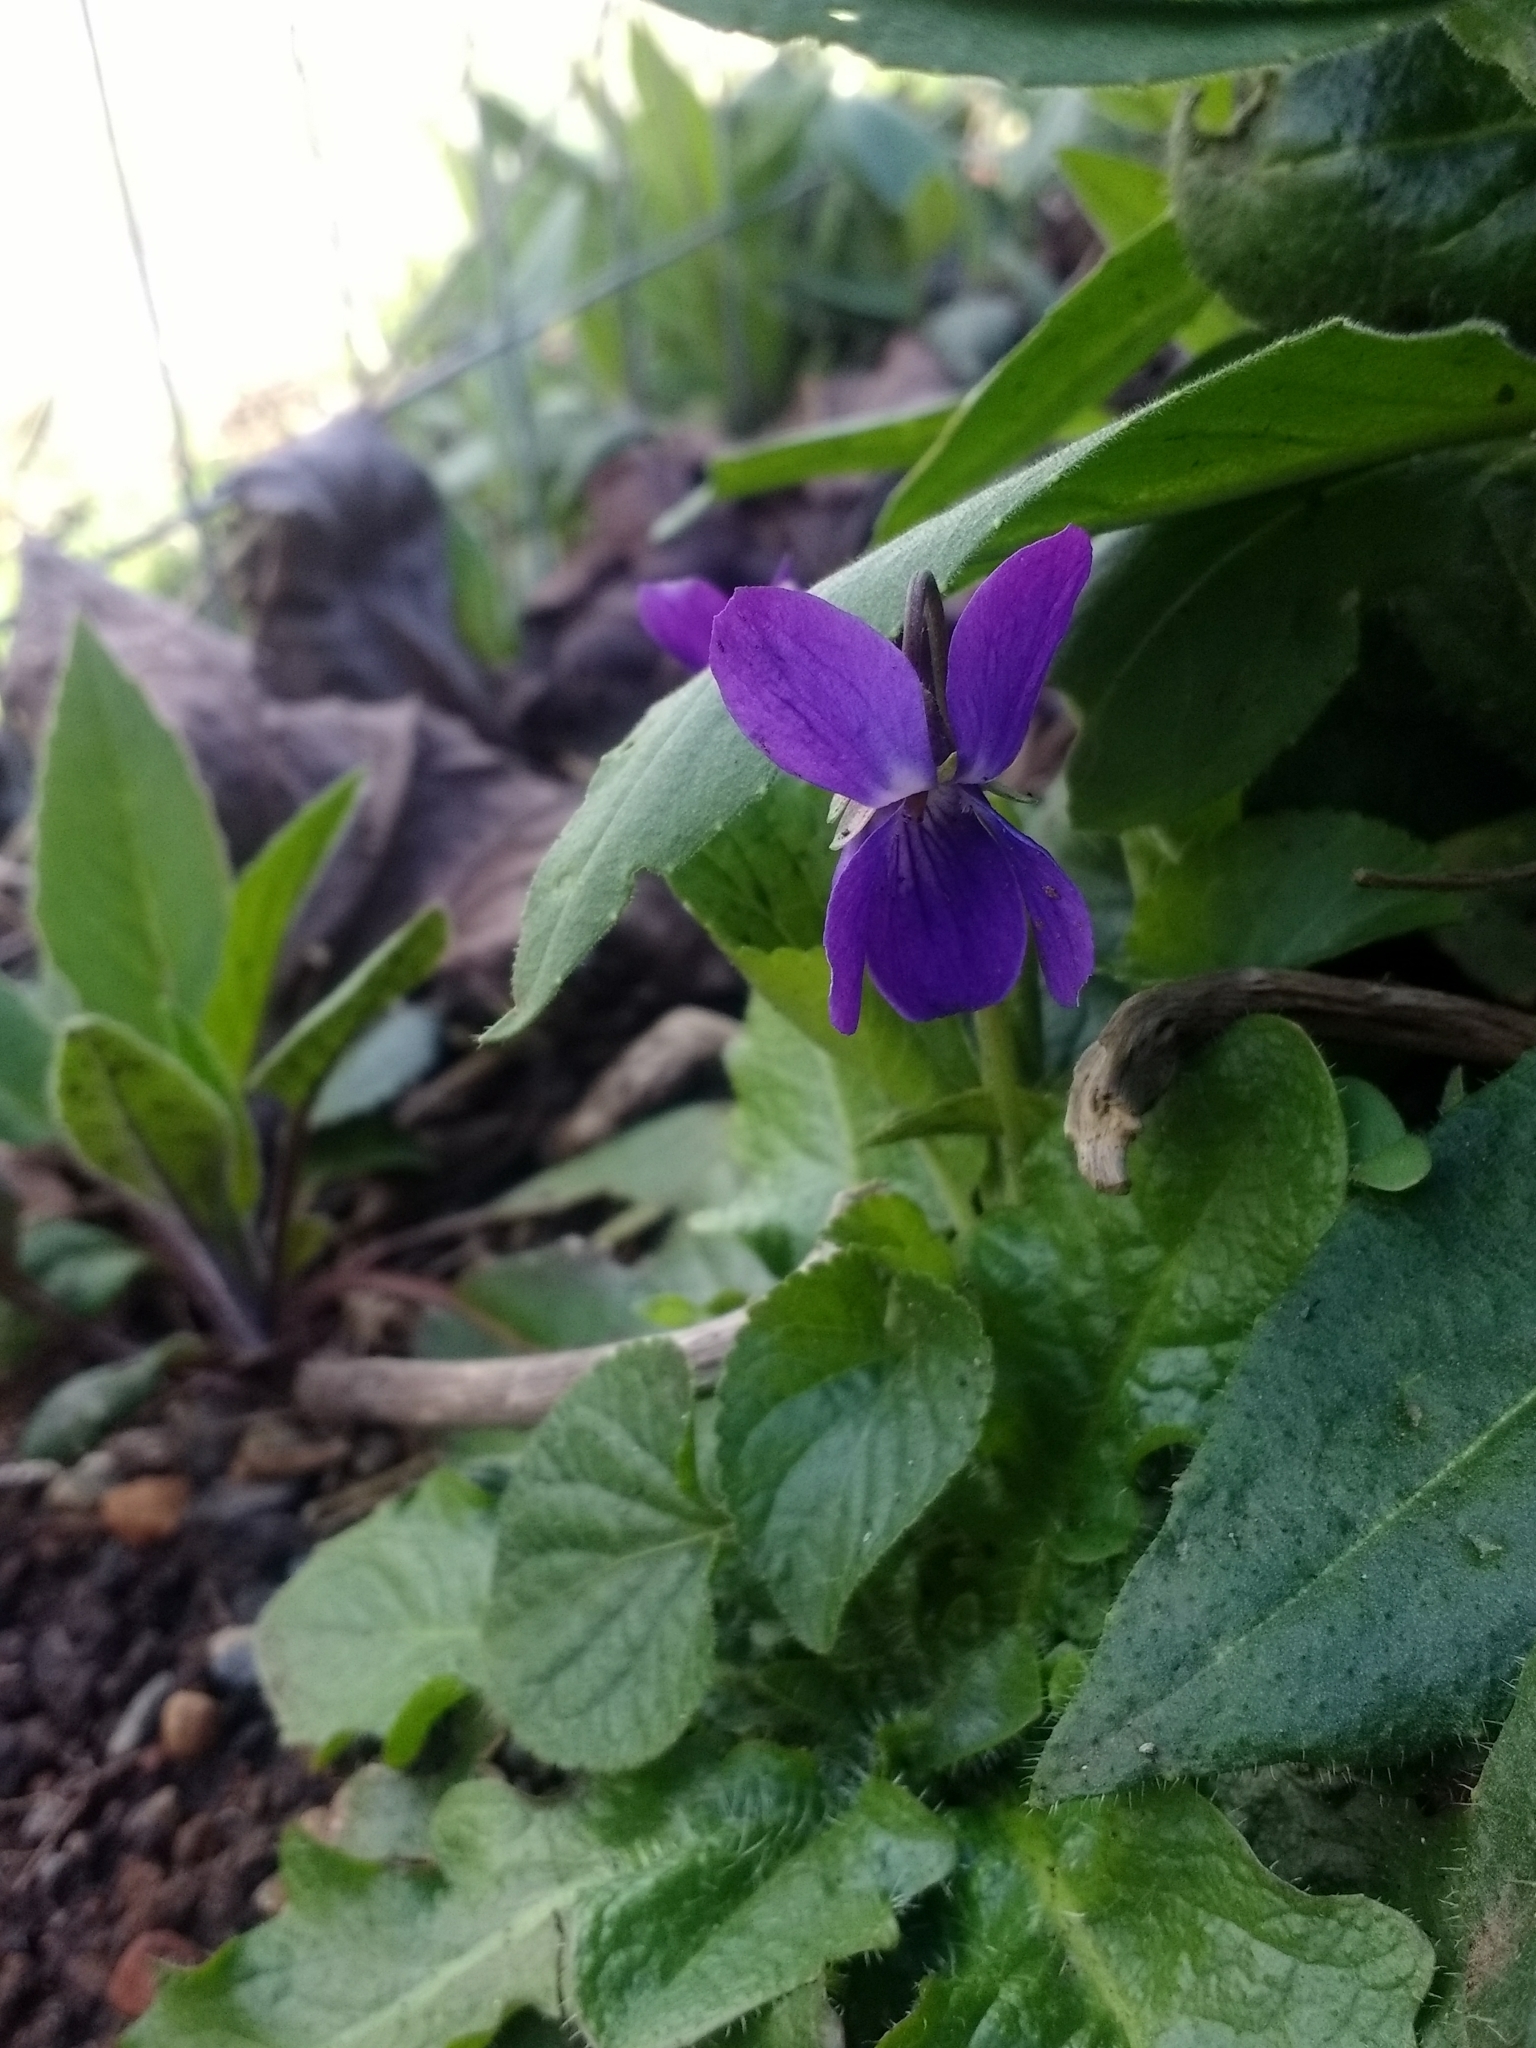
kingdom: Plantae
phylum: Tracheophyta
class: Magnoliopsida
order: Malpighiales
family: Violaceae
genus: Viola
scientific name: Viola odorata
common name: Sweet violet
